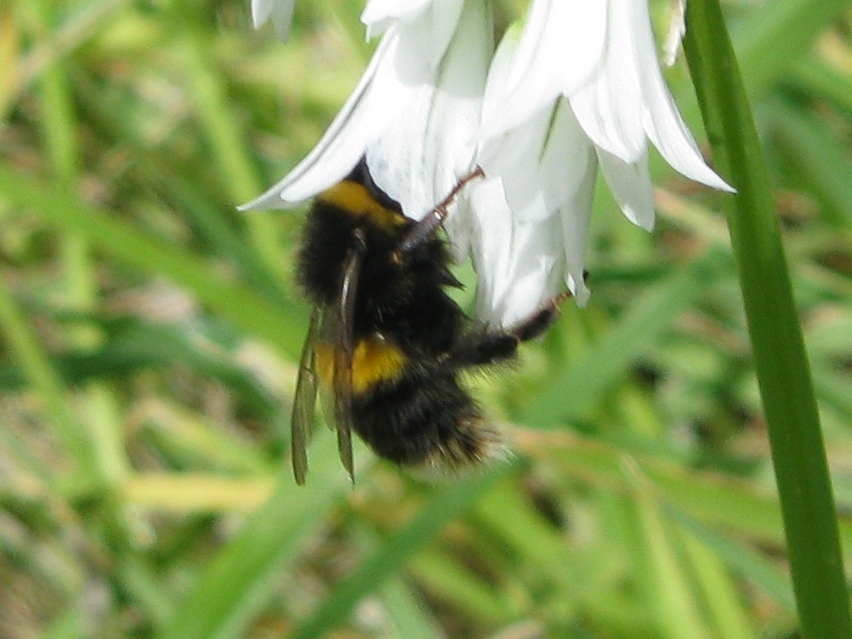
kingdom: Animalia
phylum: Arthropoda
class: Insecta
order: Hymenoptera
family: Apidae
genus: Bombus
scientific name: Bombus terrestris
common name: Buff-tailed bumblebee
